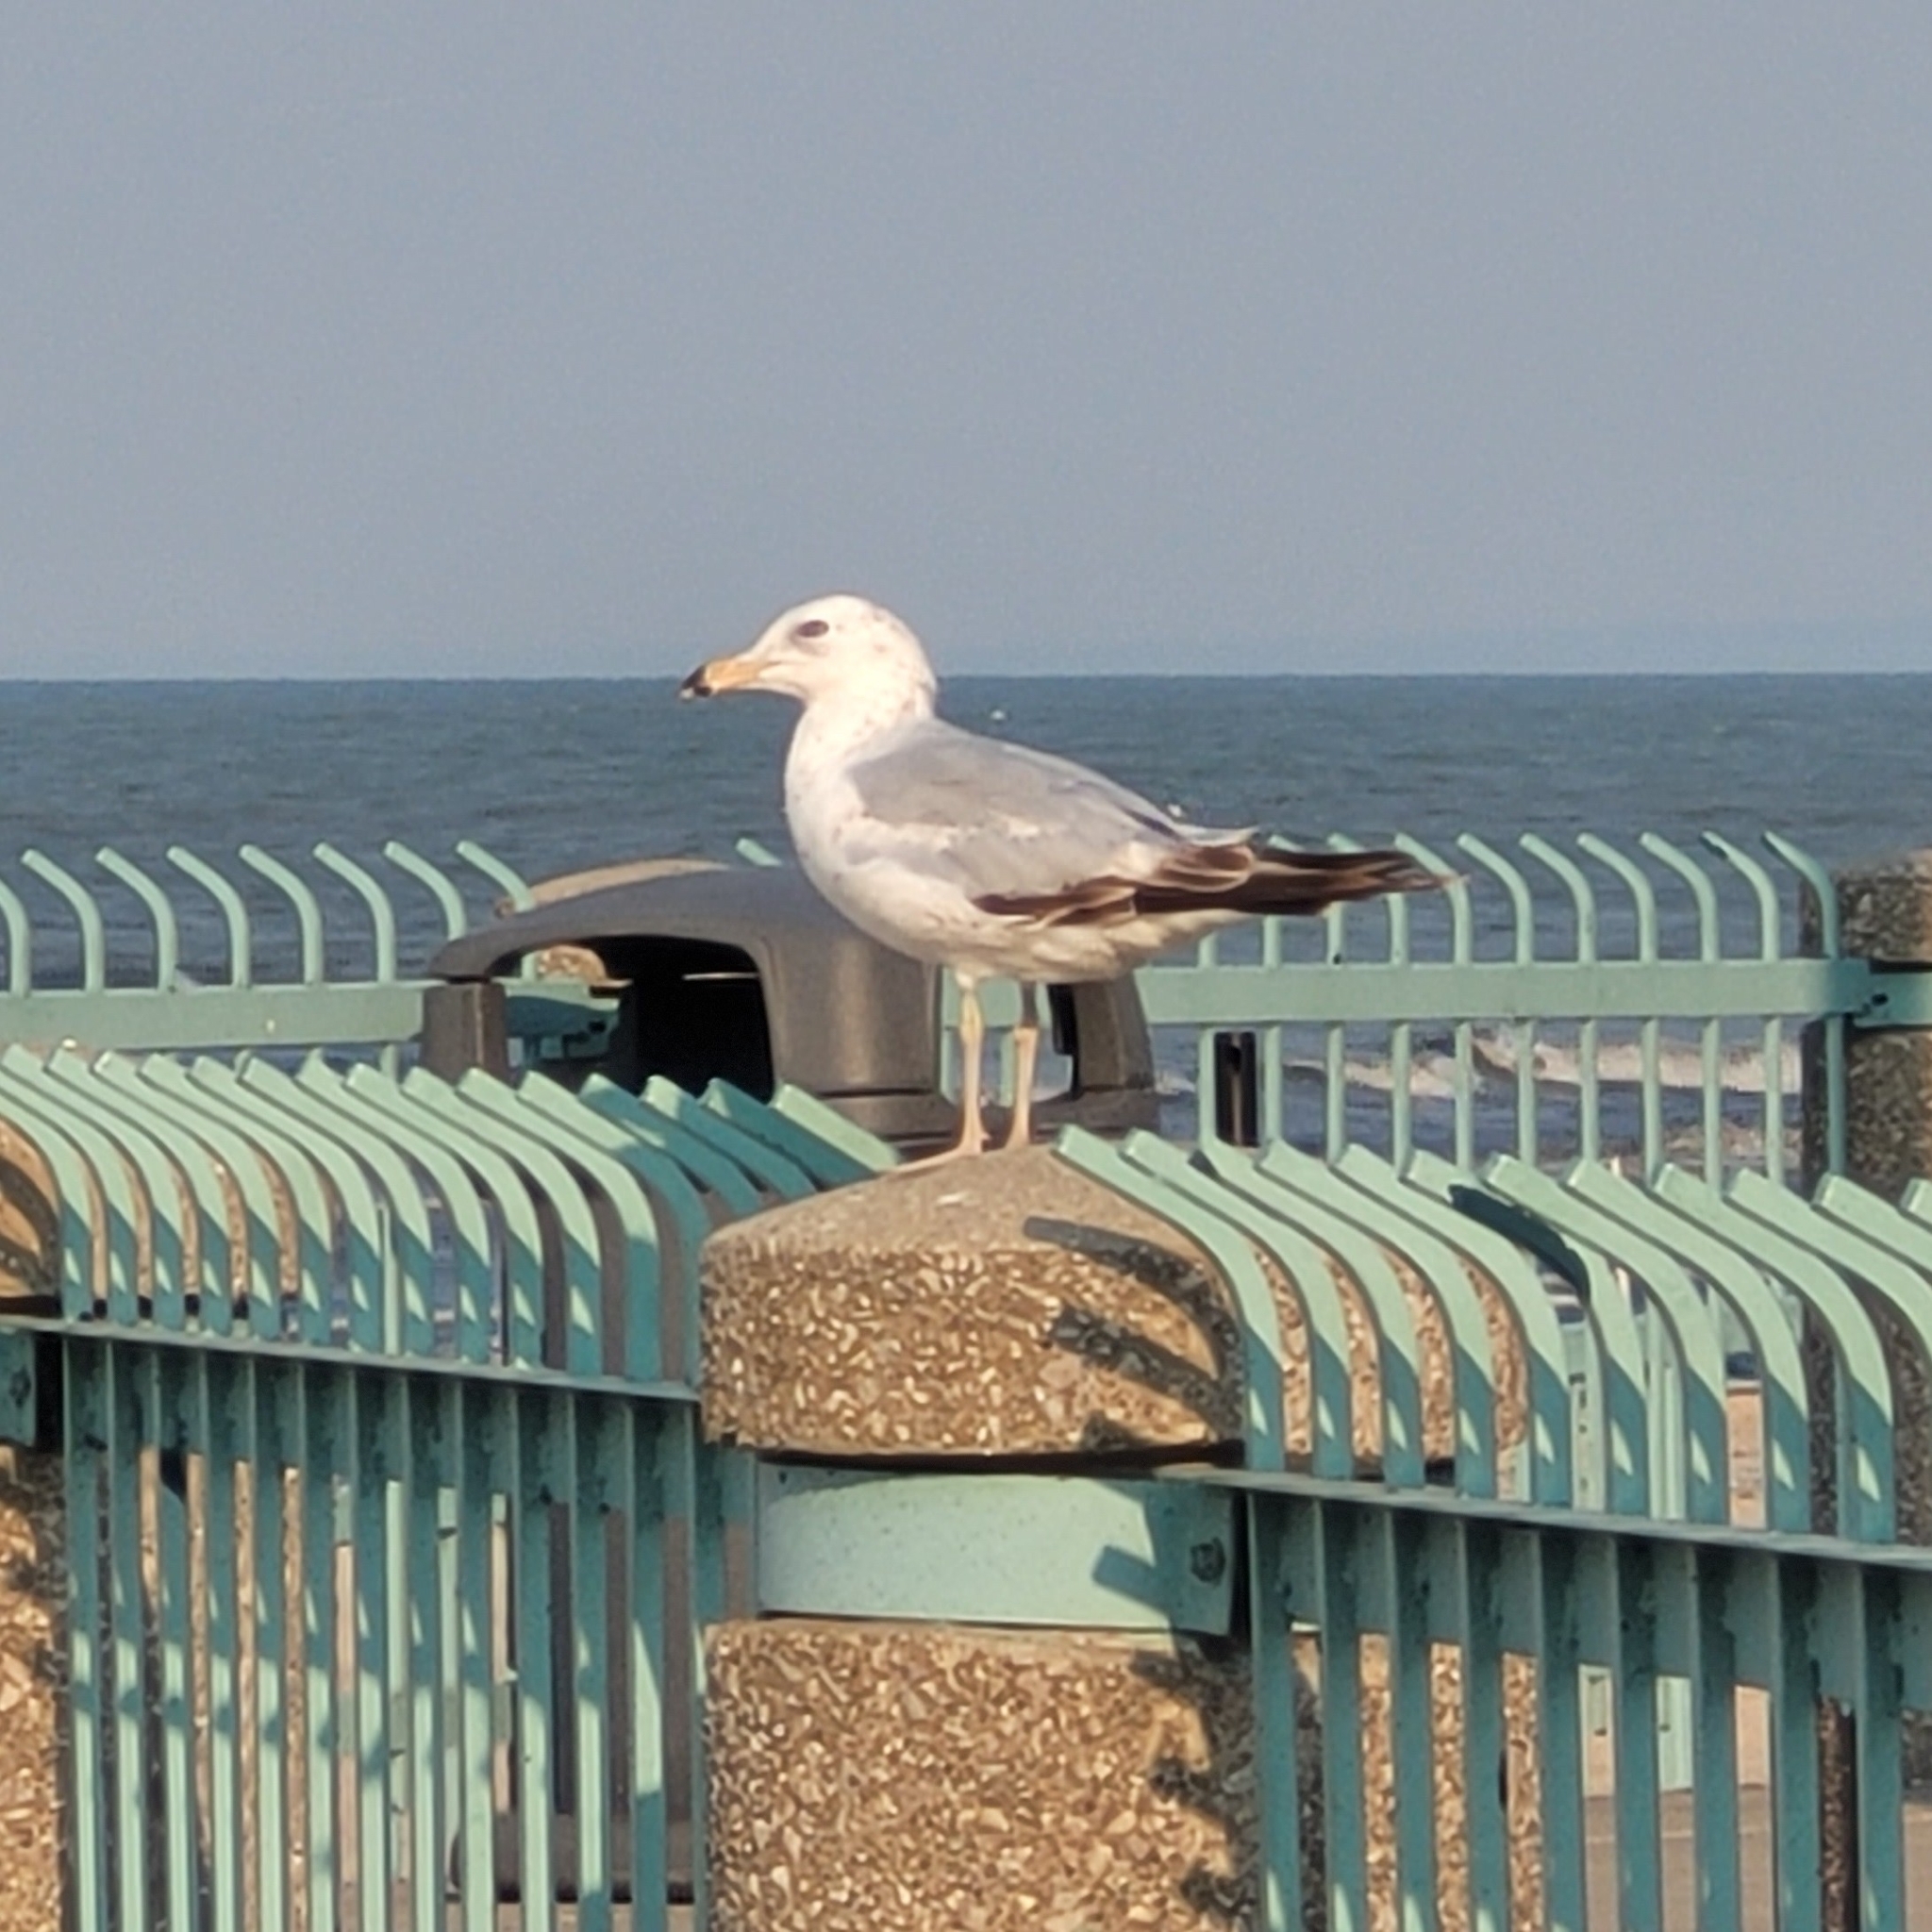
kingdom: Animalia
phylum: Chordata
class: Aves
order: Charadriiformes
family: Laridae
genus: Larus
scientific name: Larus delawarensis
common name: Ring-billed gull
